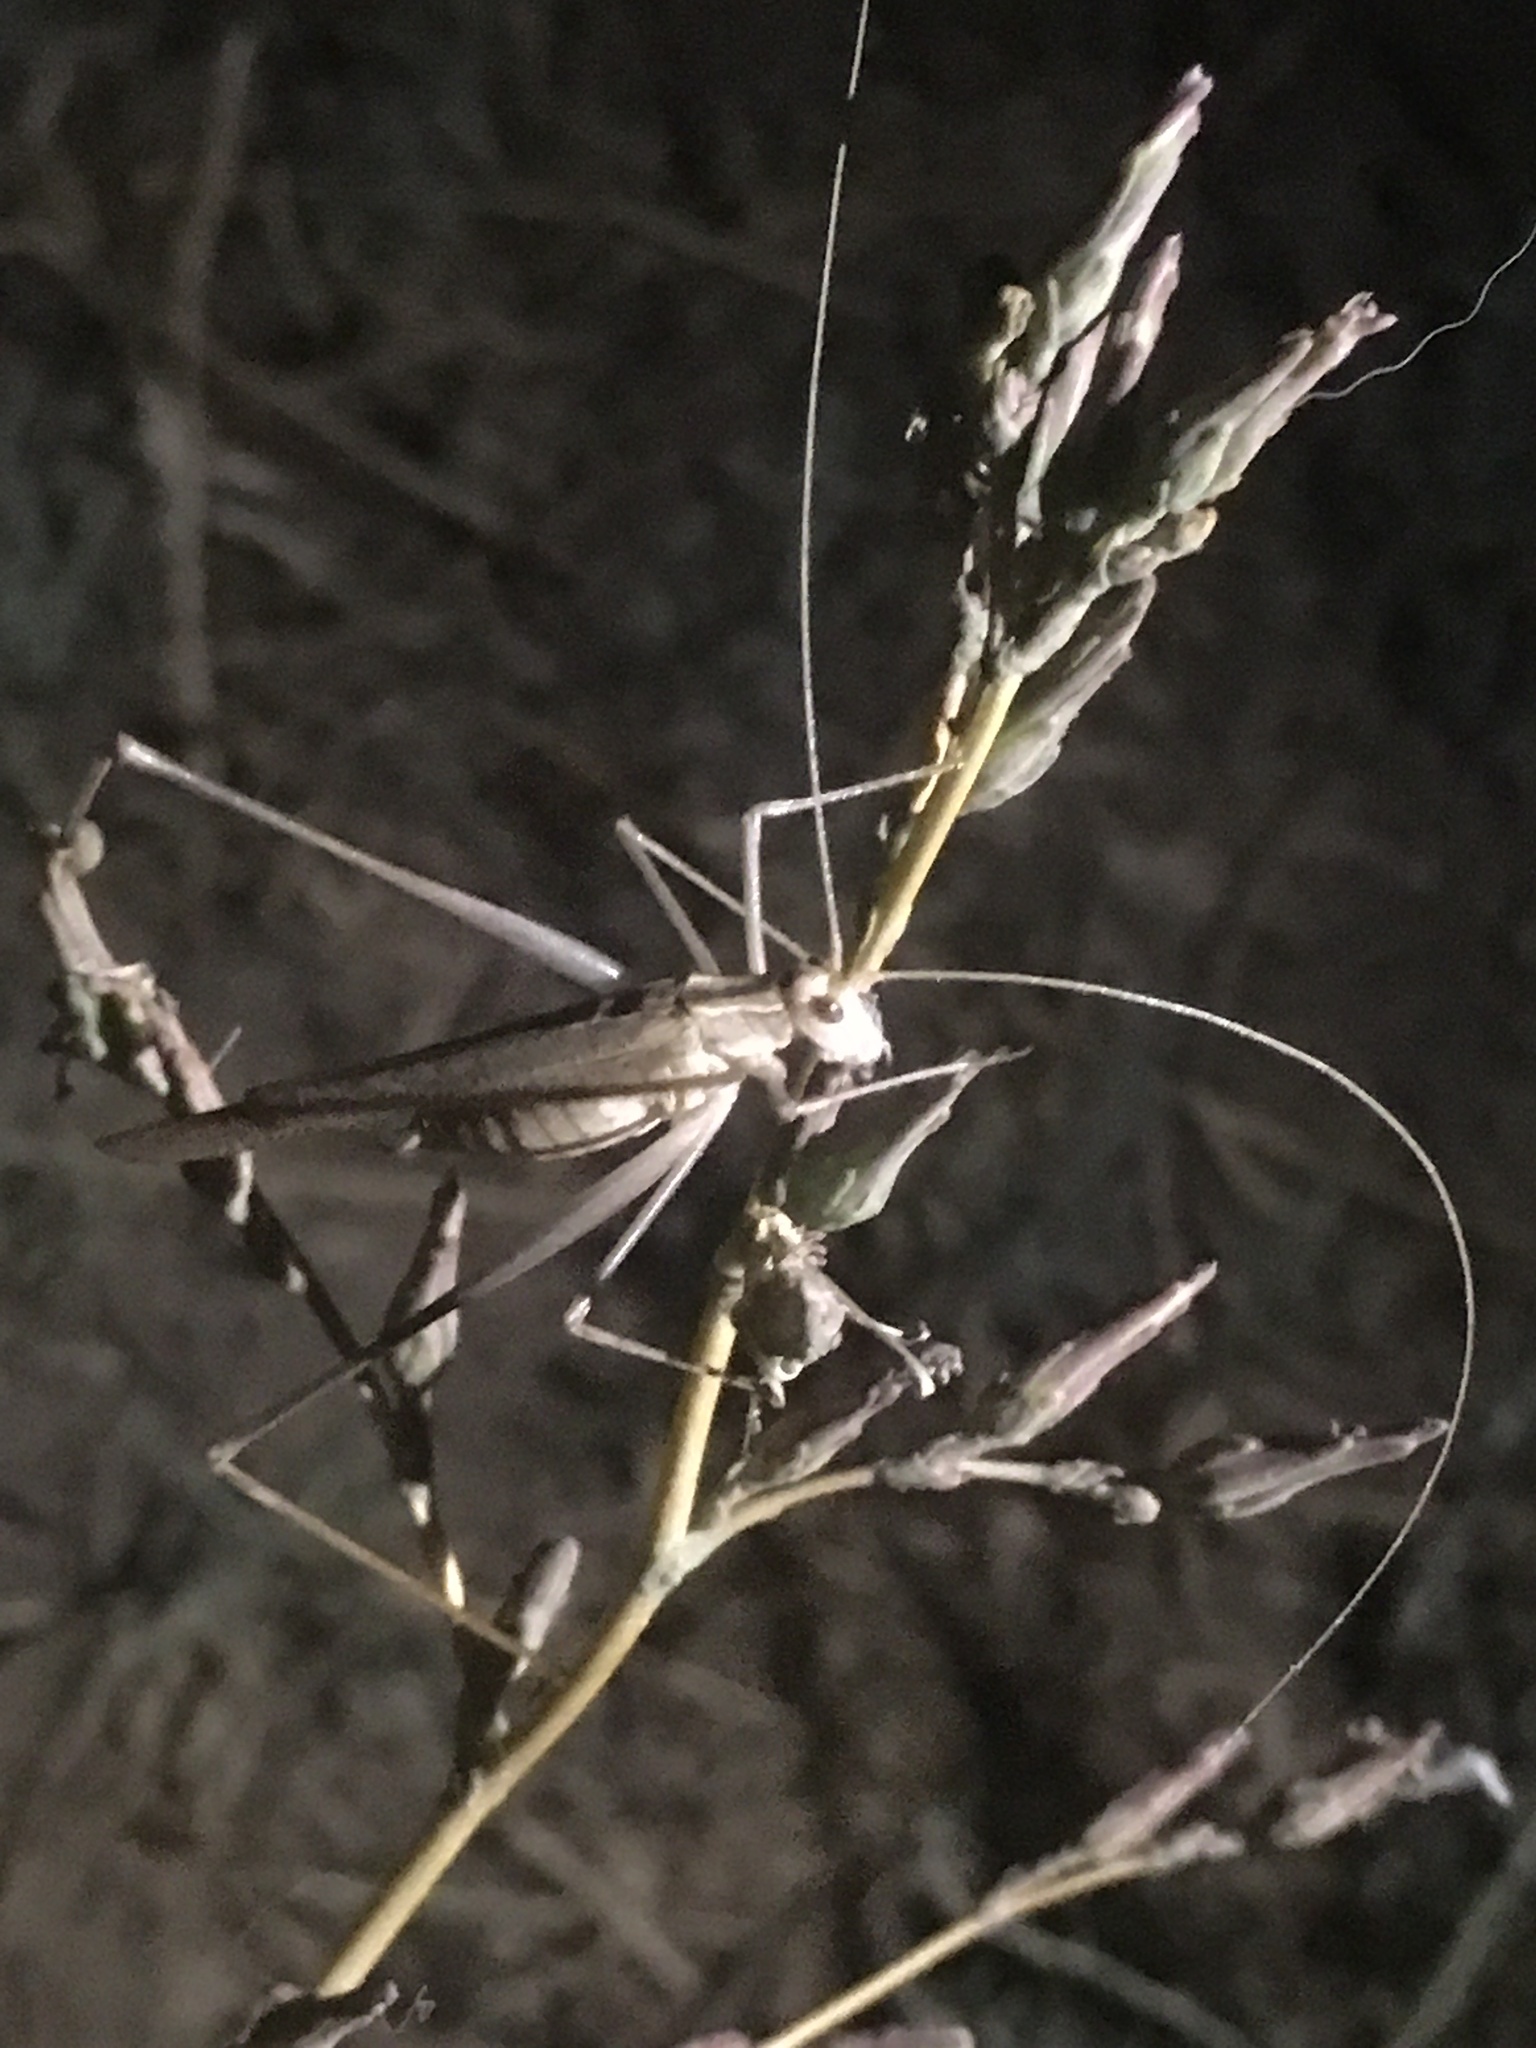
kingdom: Animalia
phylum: Arthropoda
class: Insecta
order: Orthoptera
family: Tettigoniidae
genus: Tylopsis
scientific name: Tylopsis lilifolia
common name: Lily bush-cricket
